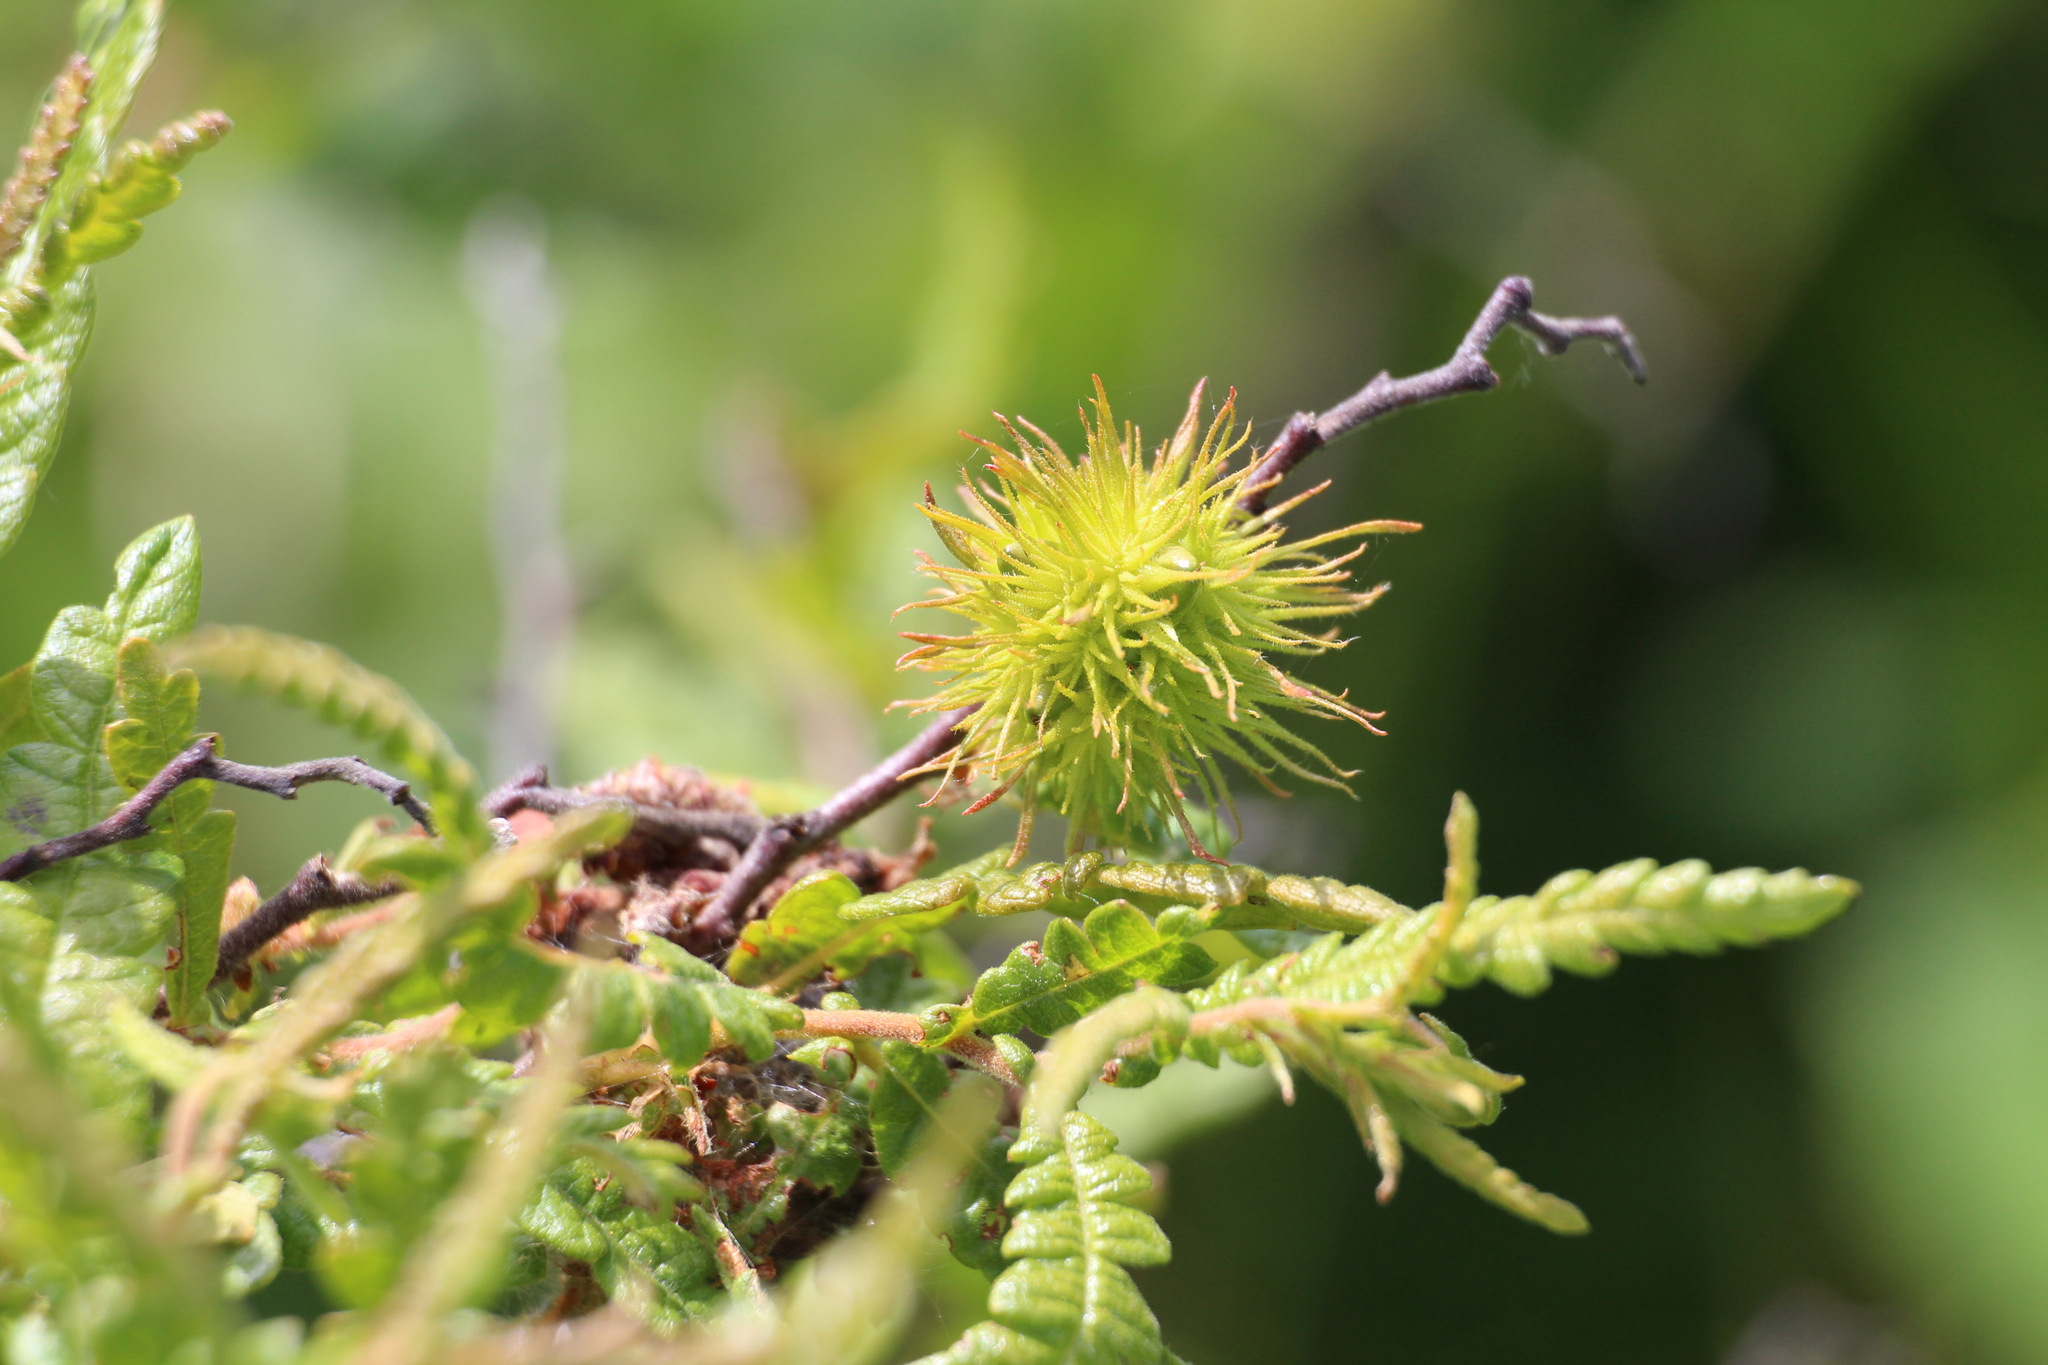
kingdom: Plantae
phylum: Tracheophyta
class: Magnoliopsida
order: Fagales
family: Myricaceae
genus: Comptonia
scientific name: Comptonia peregrina
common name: Sweet-fern
